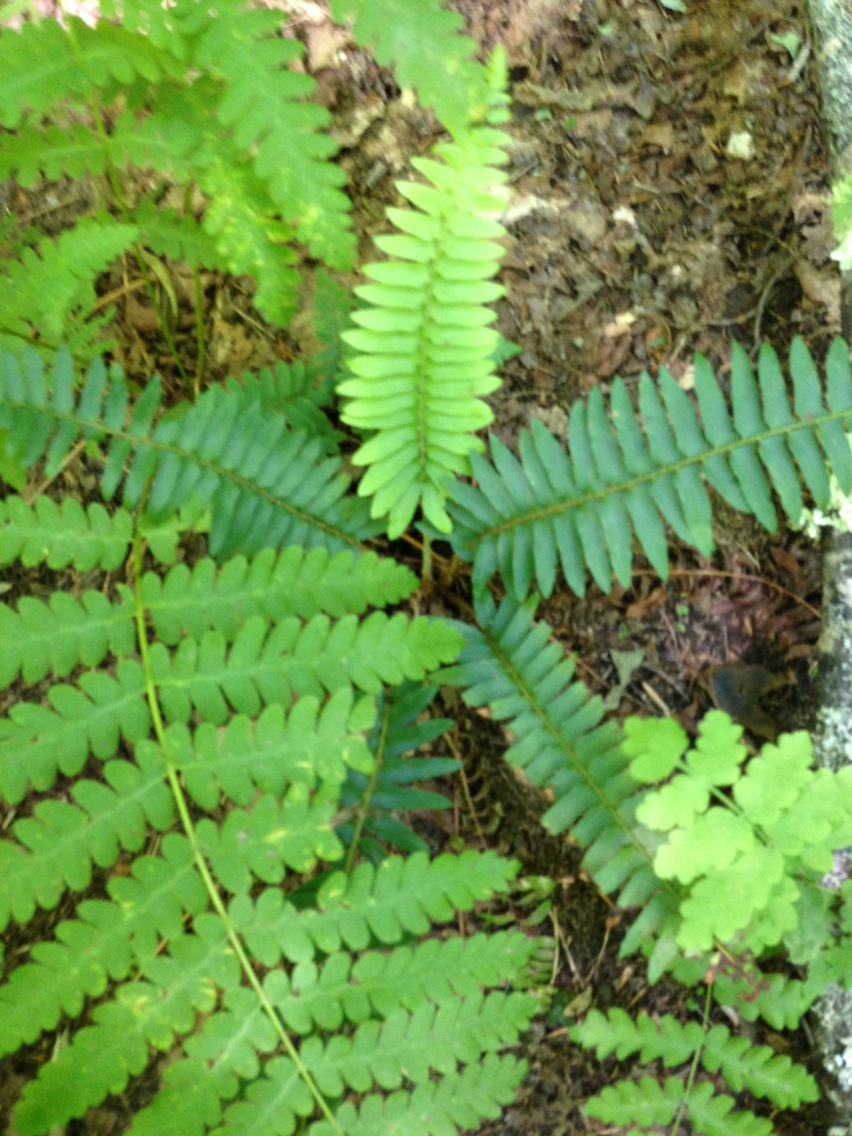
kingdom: Plantae
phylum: Tracheophyta
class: Polypodiopsida
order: Polypodiales
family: Dryopteridaceae
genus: Polystichum
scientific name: Polystichum acrostichoides
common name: Christmas fern
